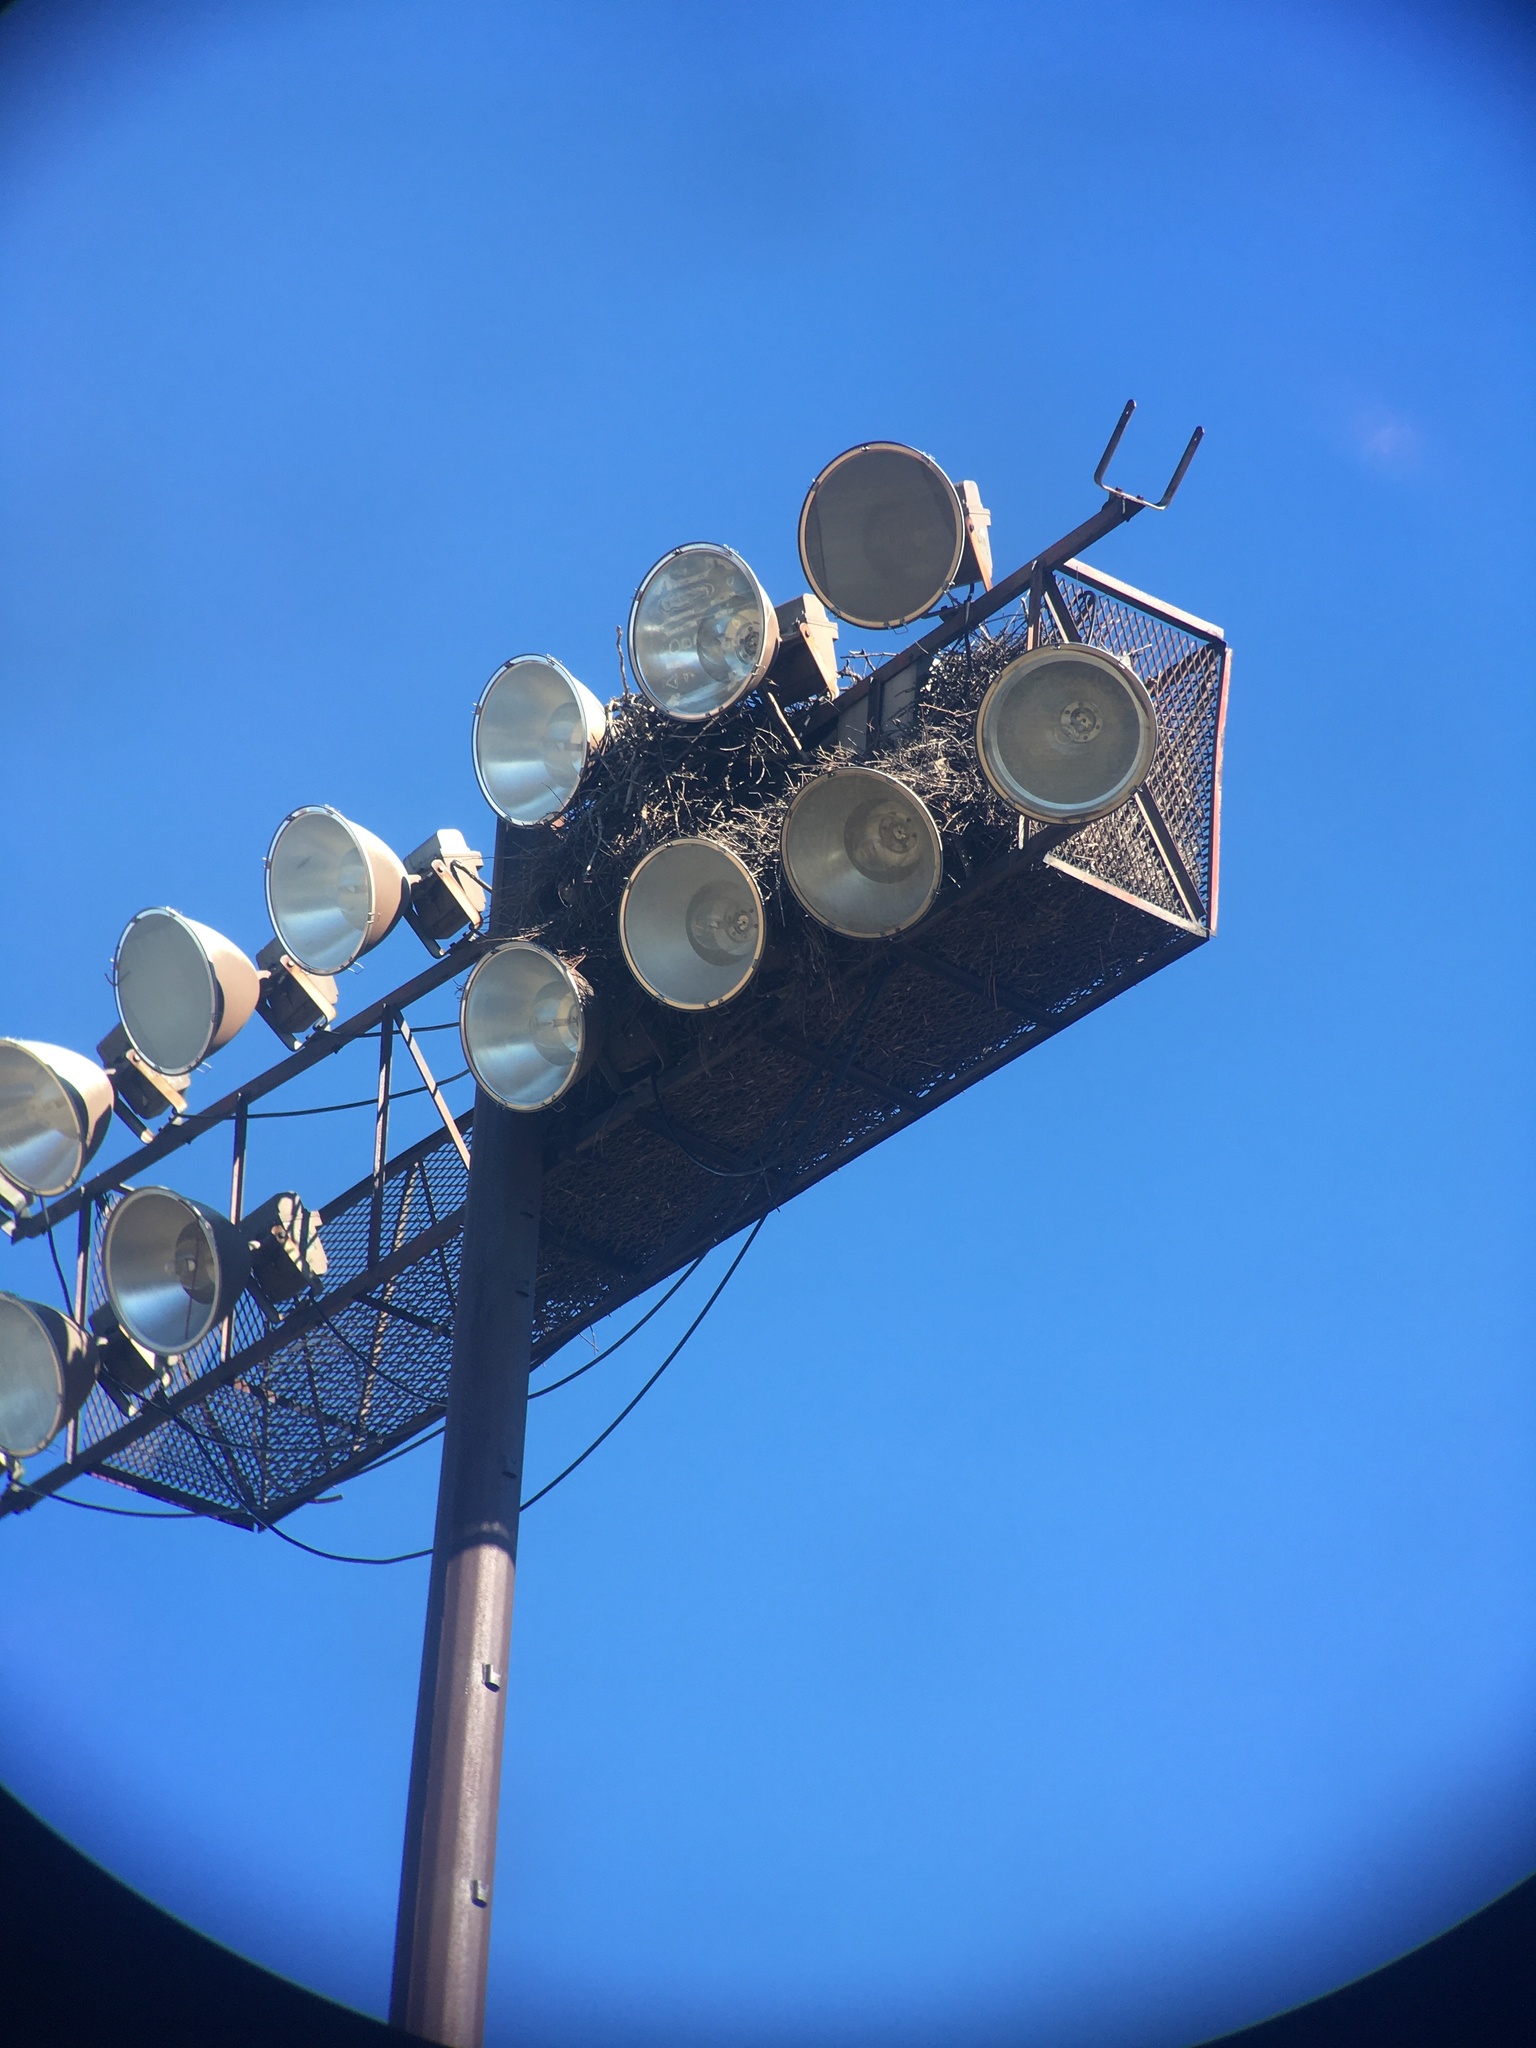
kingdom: Animalia
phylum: Chordata
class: Aves
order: Psittaciformes
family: Psittacidae
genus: Myiopsitta
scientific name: Myiopsitta monachus
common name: Monk parakeet
